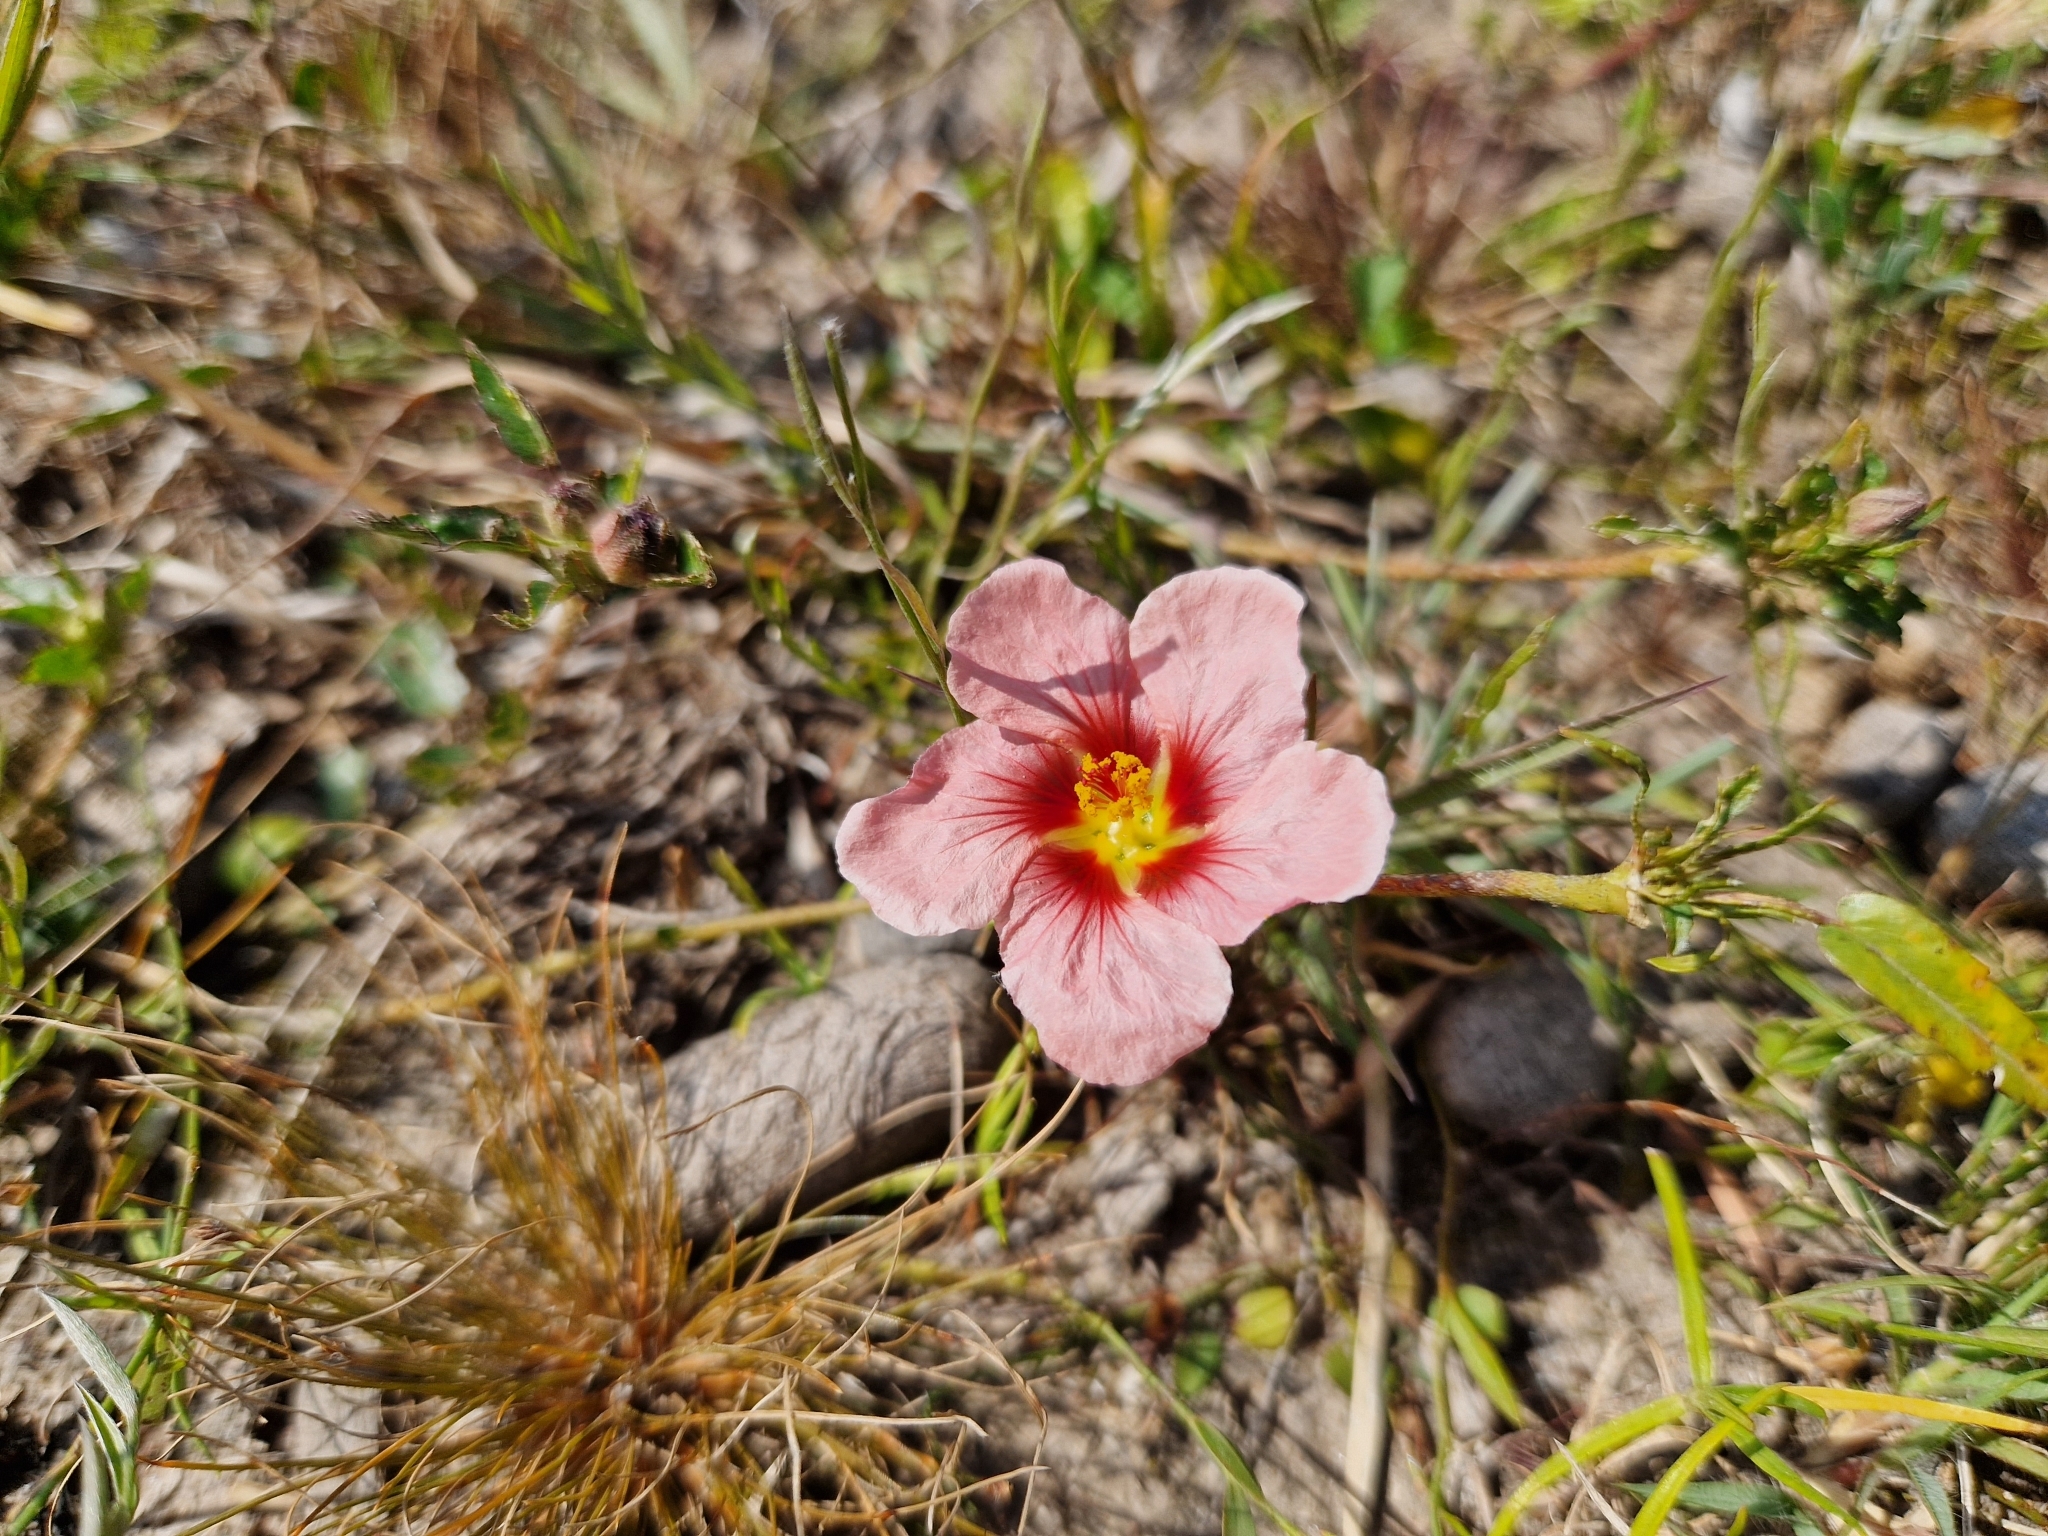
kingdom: Plantae
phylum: Tracheophyta
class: Magnoliopsida
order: Malvales
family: Malvaceae
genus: Sida
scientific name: Sida anomala
